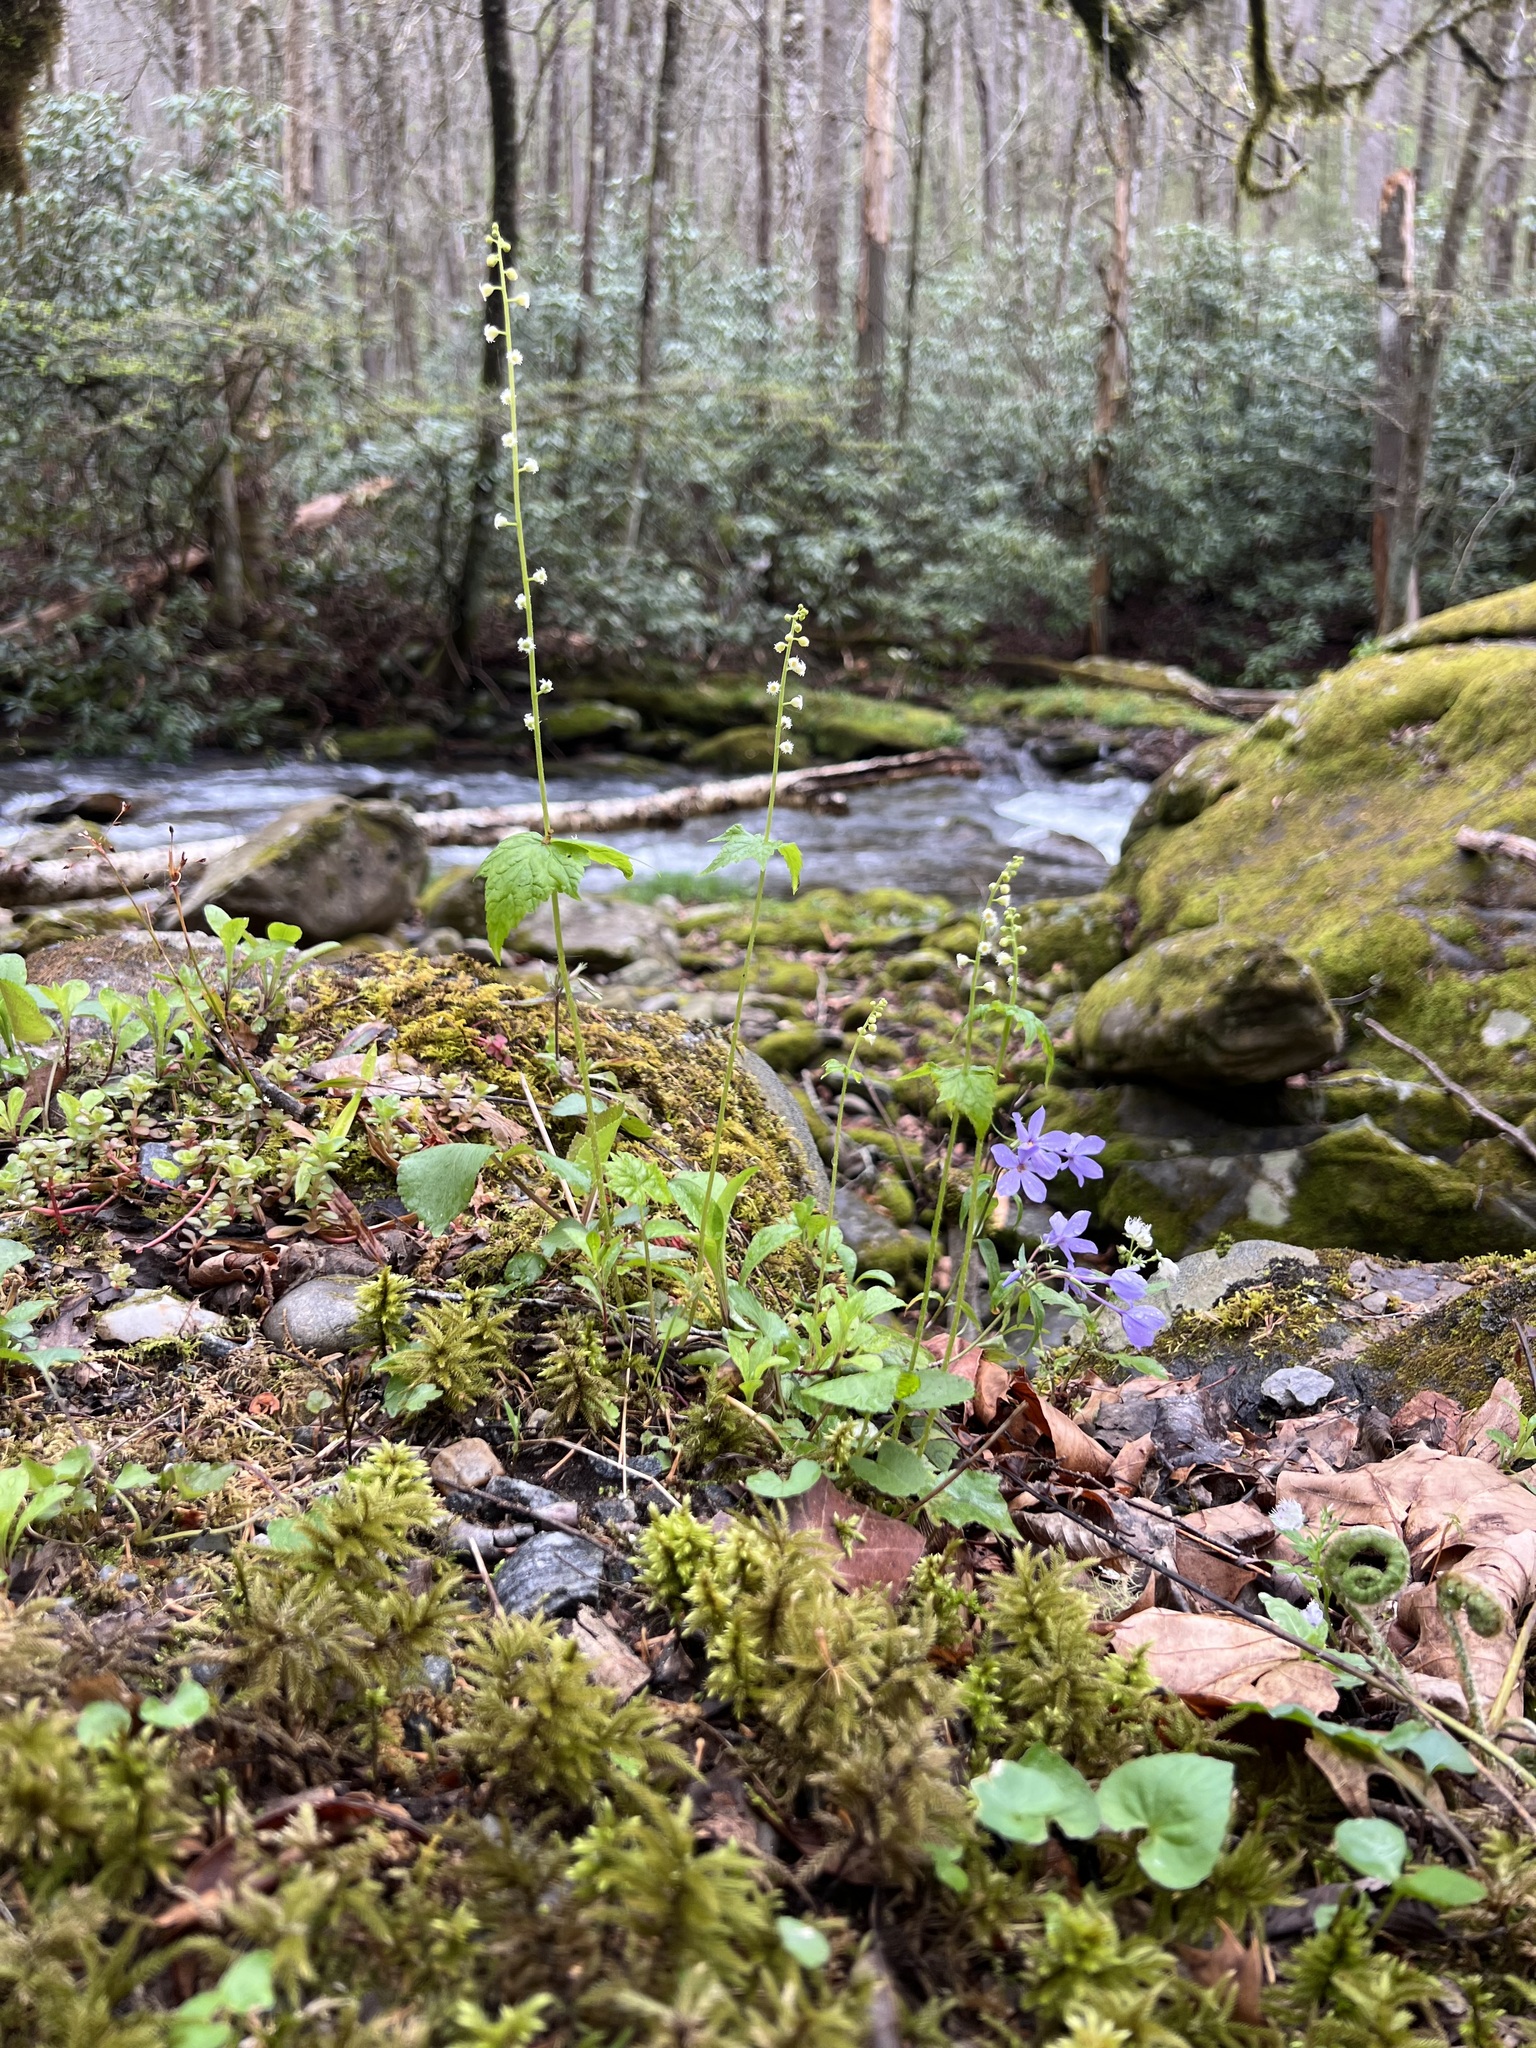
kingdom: Plantae
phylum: Tracheophyta
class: Magnoliopsida
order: Saxifragales
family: Saxifragaceae
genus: Mitella
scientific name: Mitella diphylla
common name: Coolwort
